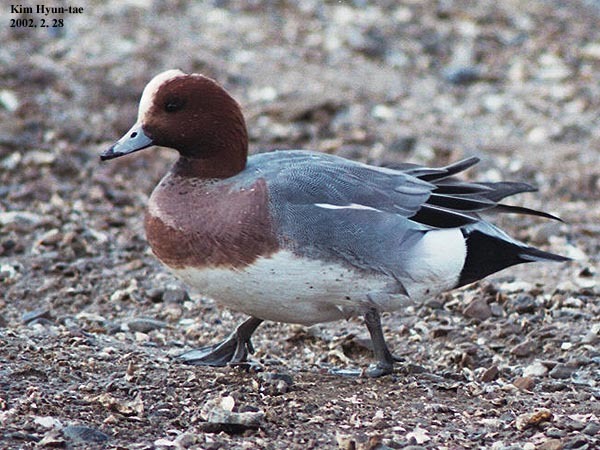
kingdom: Animalia
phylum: Chordata
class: Aves
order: Anseriformes
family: Anatidae
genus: Mareca
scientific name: Mareca penelope
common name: Eurasian wigeon
